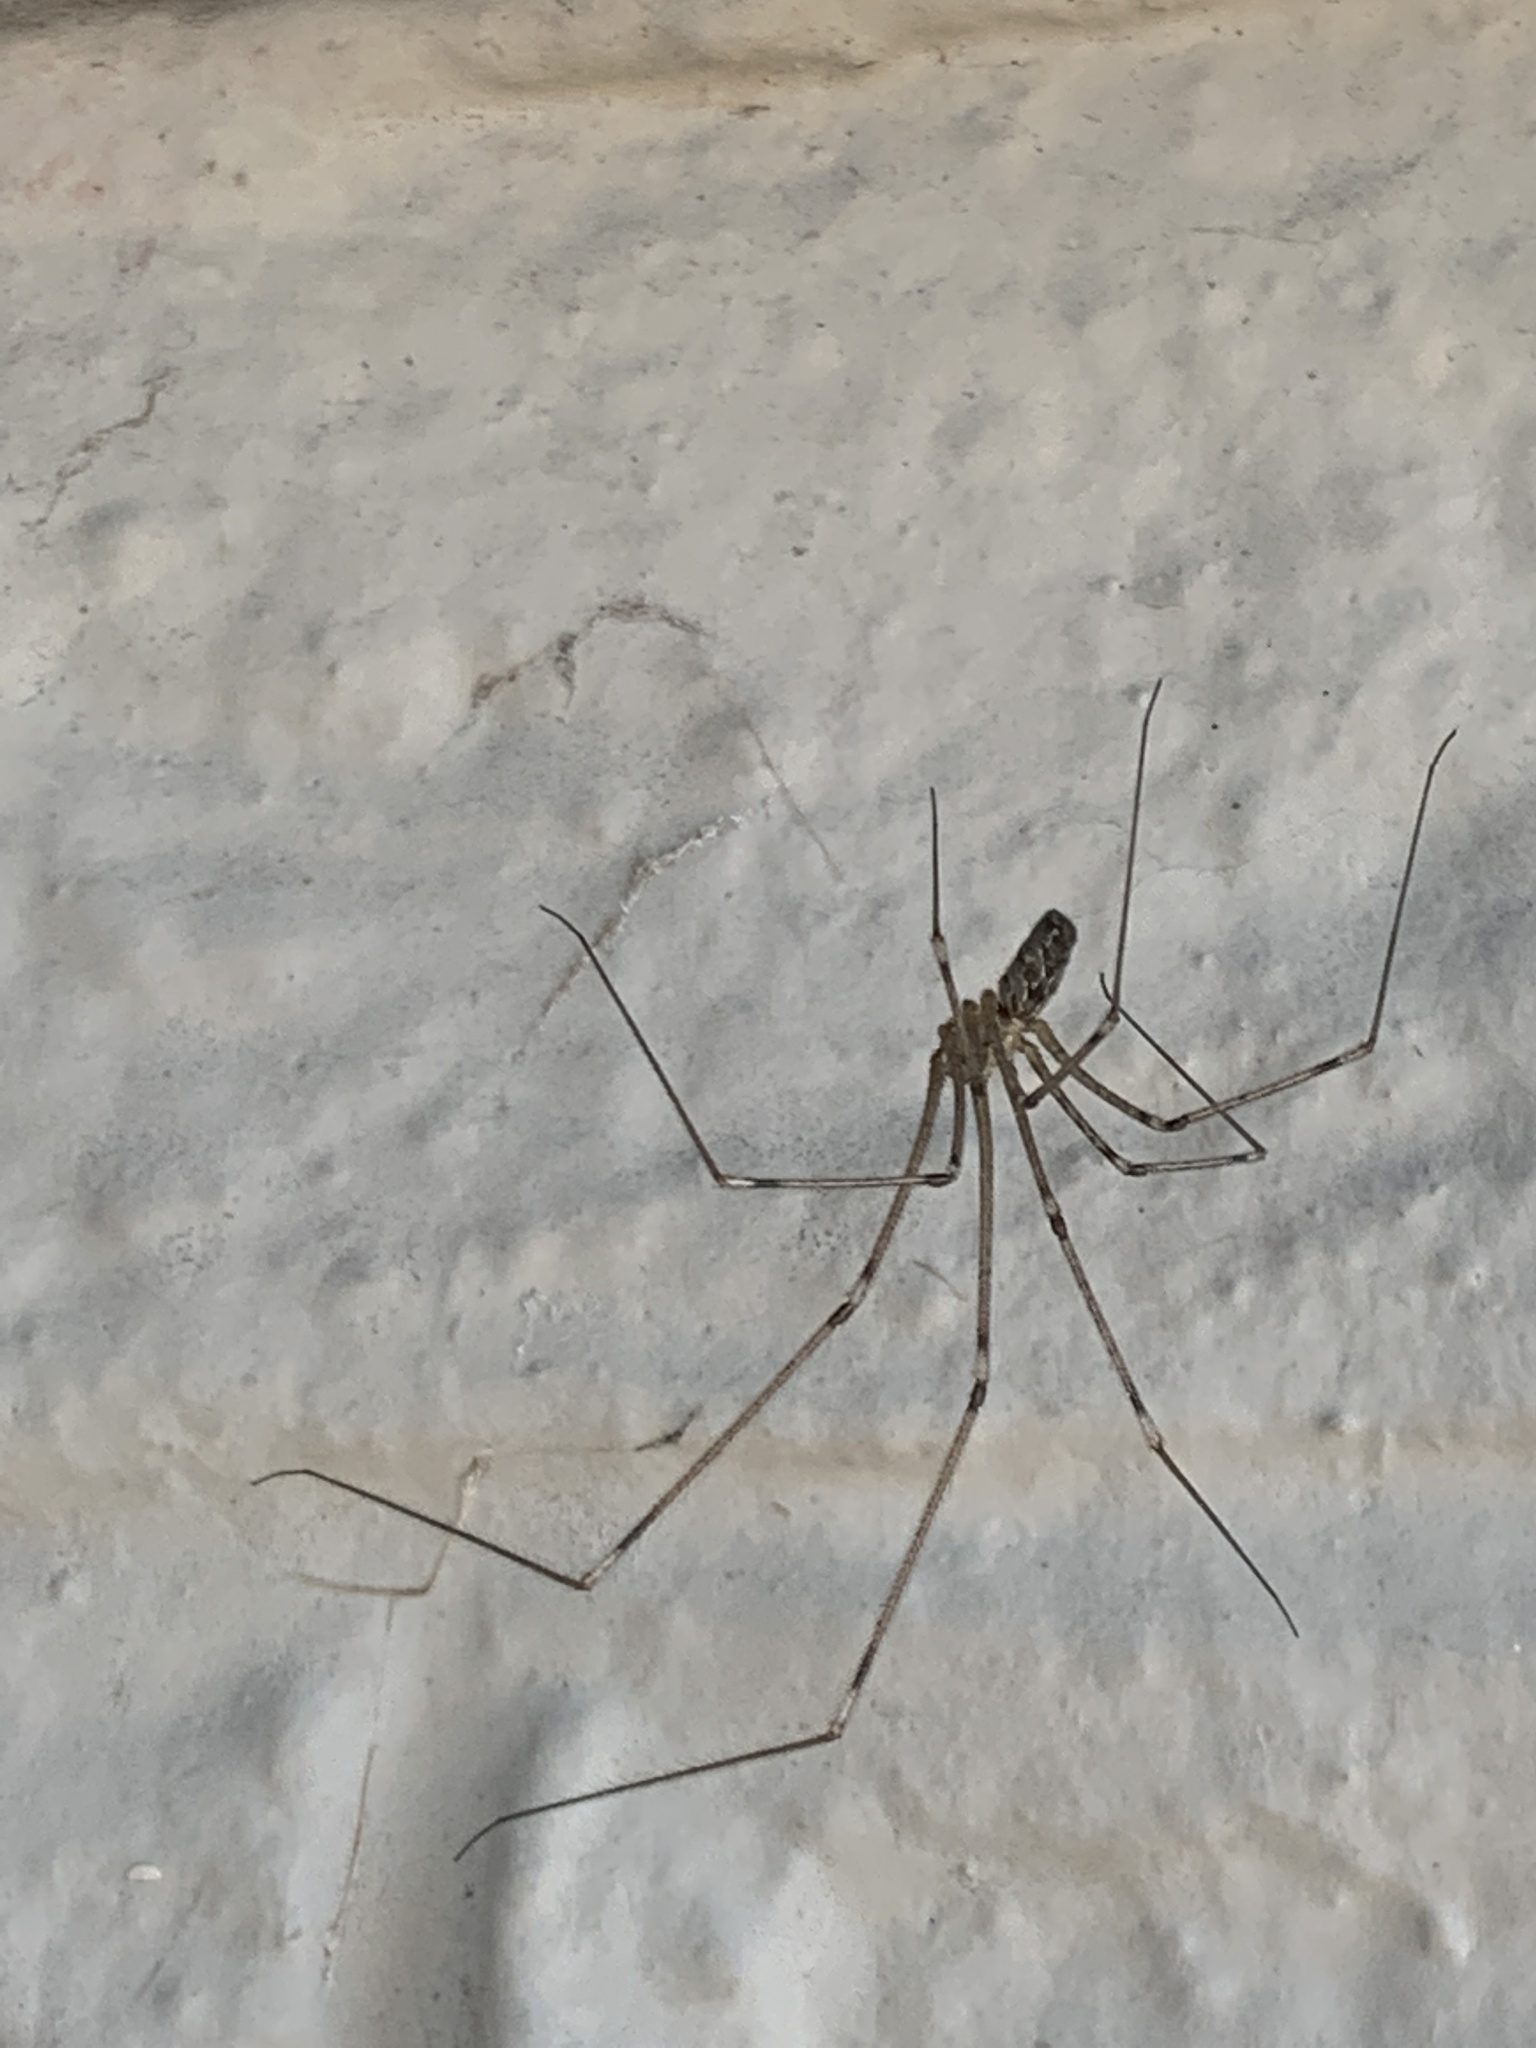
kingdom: Animalia
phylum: Arthropoda
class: Arachnida
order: Araneae
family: Pholcidae
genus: Holocnemus
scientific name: Holocnemus pluchei
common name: Marbled cellar spider
